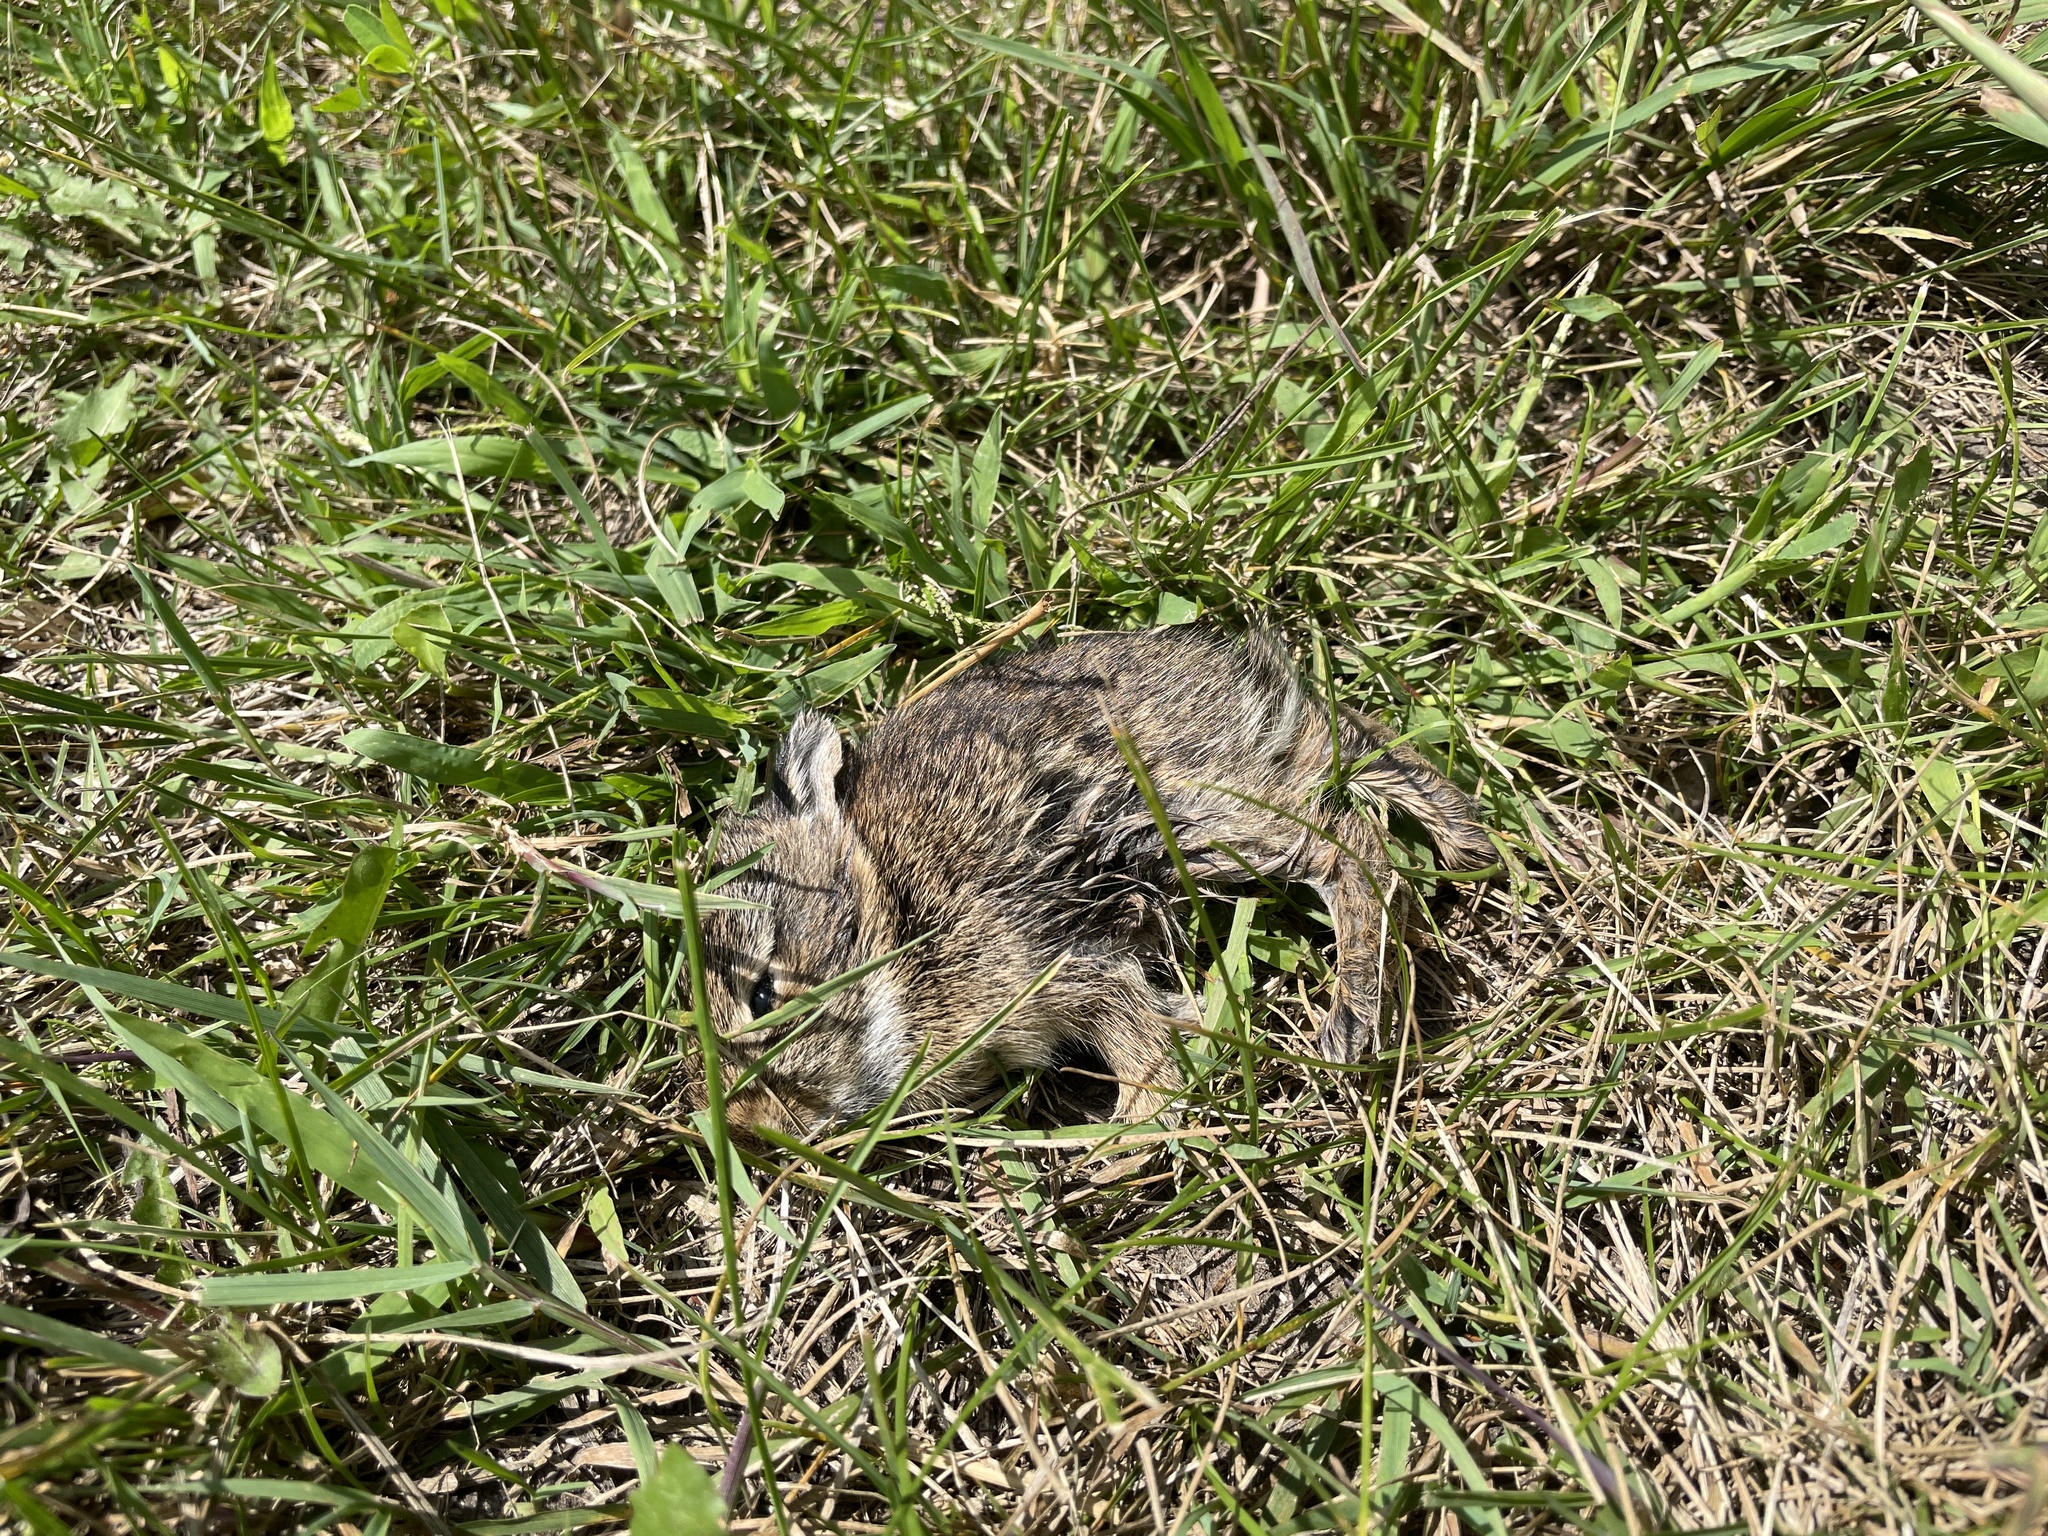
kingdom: Animalia
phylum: Chordata
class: Mammalia
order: Lagomorpha
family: Leporidae
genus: Sylvilagus
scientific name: Sylvilagus floridanus
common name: Eastern cottontail
